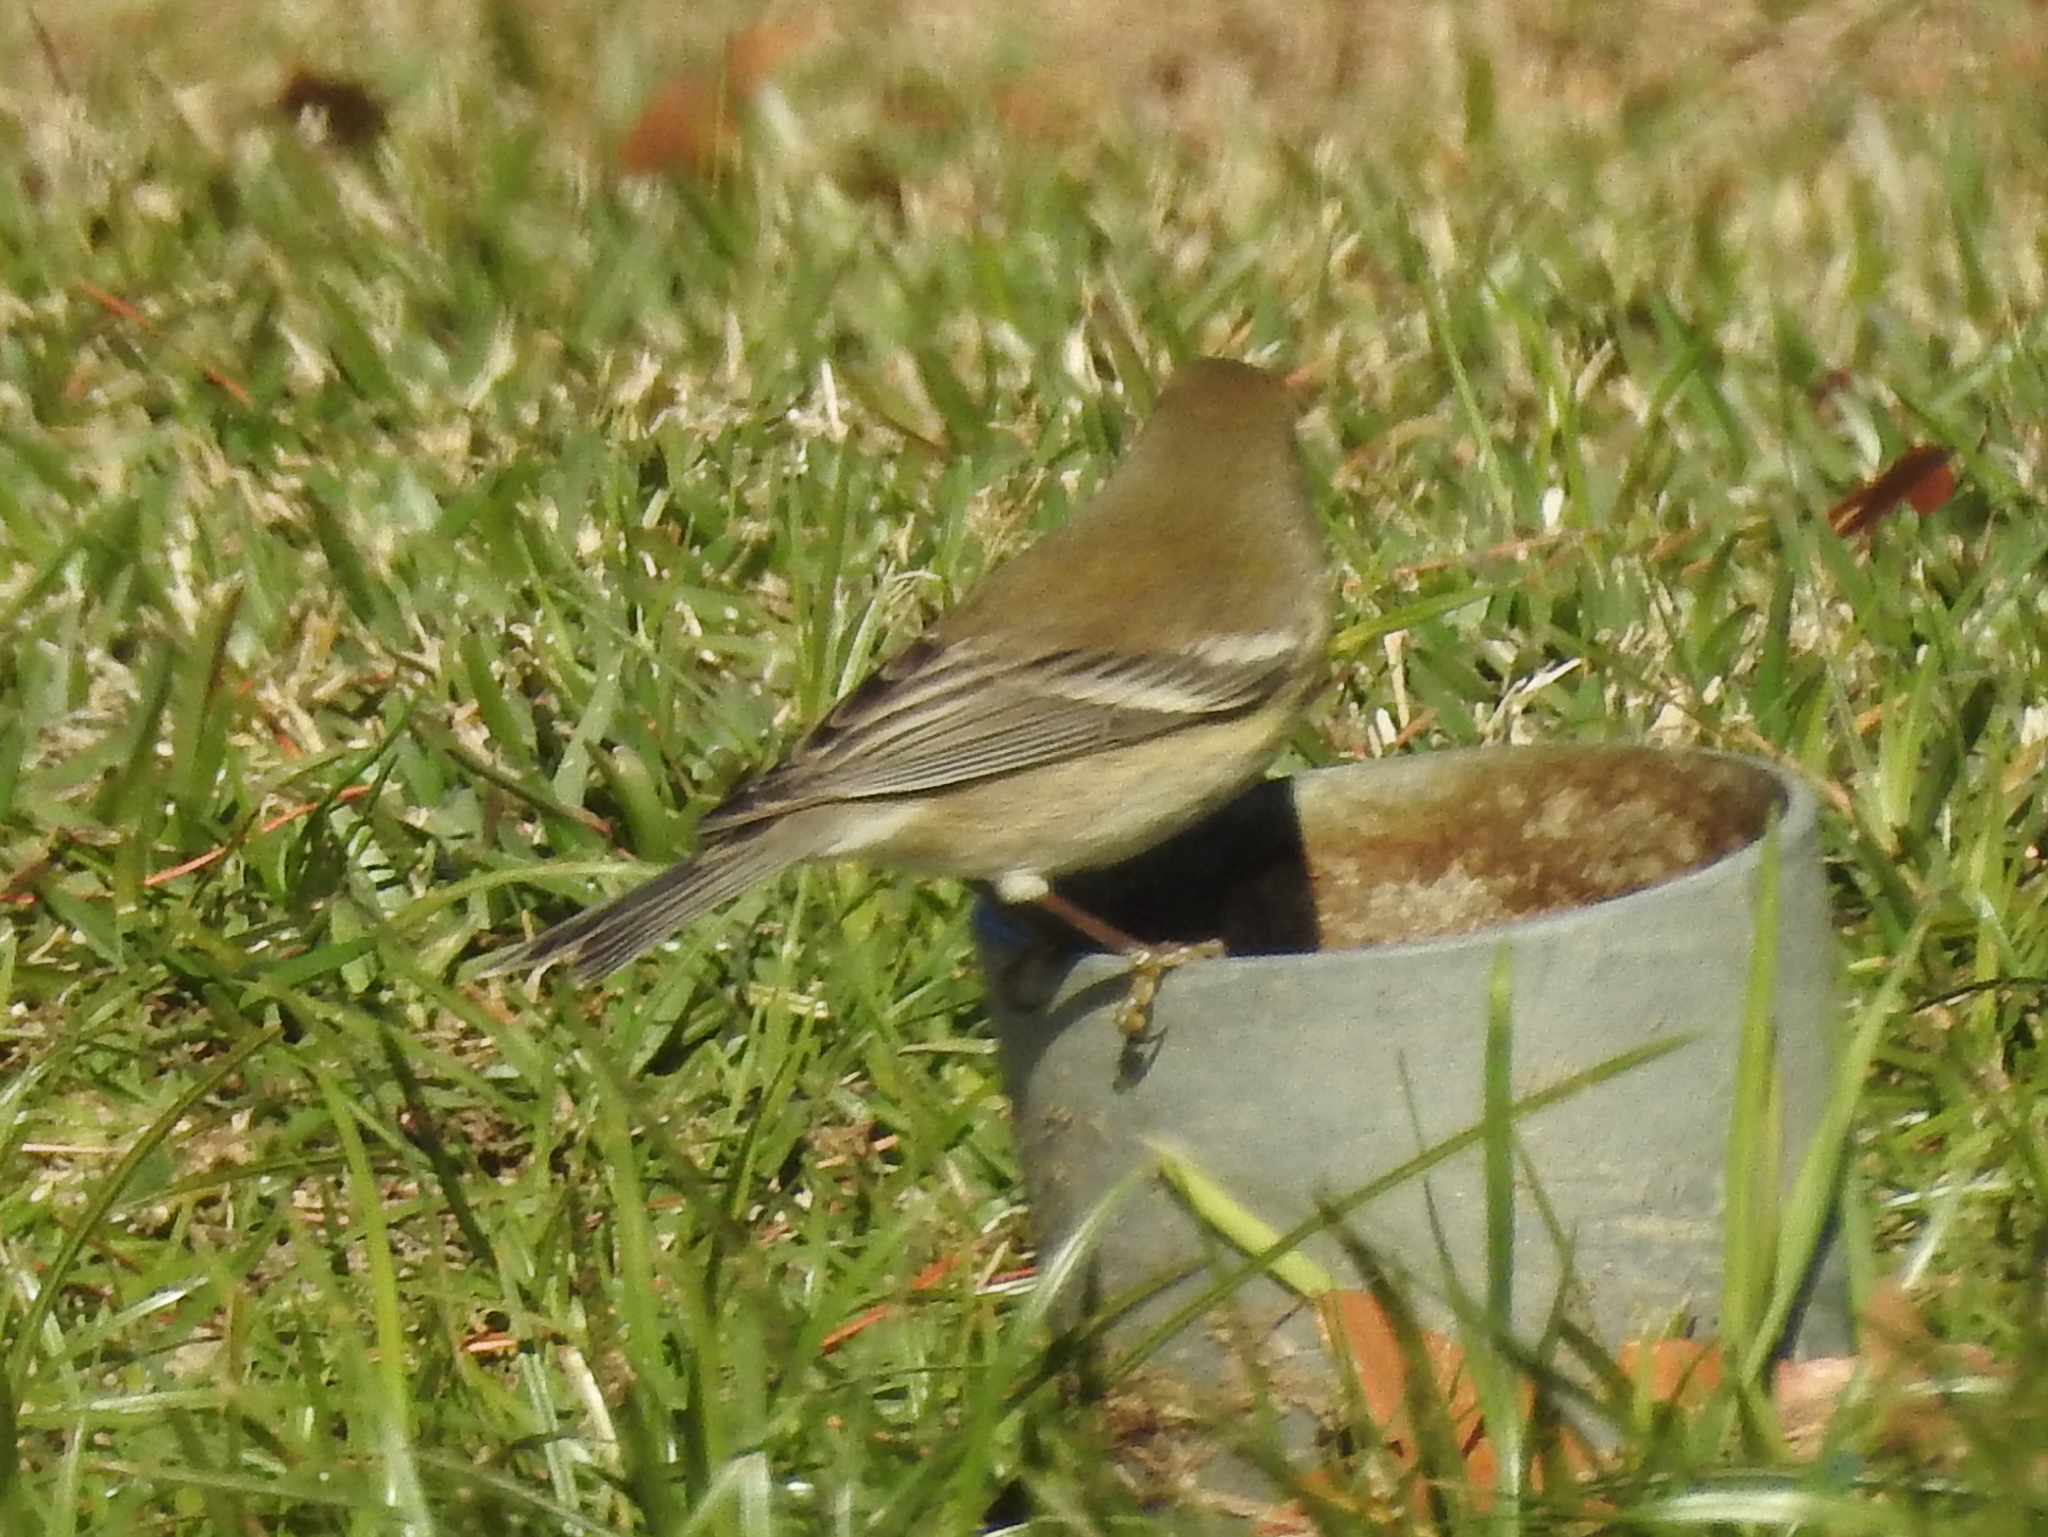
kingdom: Animalia
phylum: Chordata
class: Aves
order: Passeriformes
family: Parulidae
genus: Setophaga
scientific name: Setophaga pinus
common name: Pine warbler
